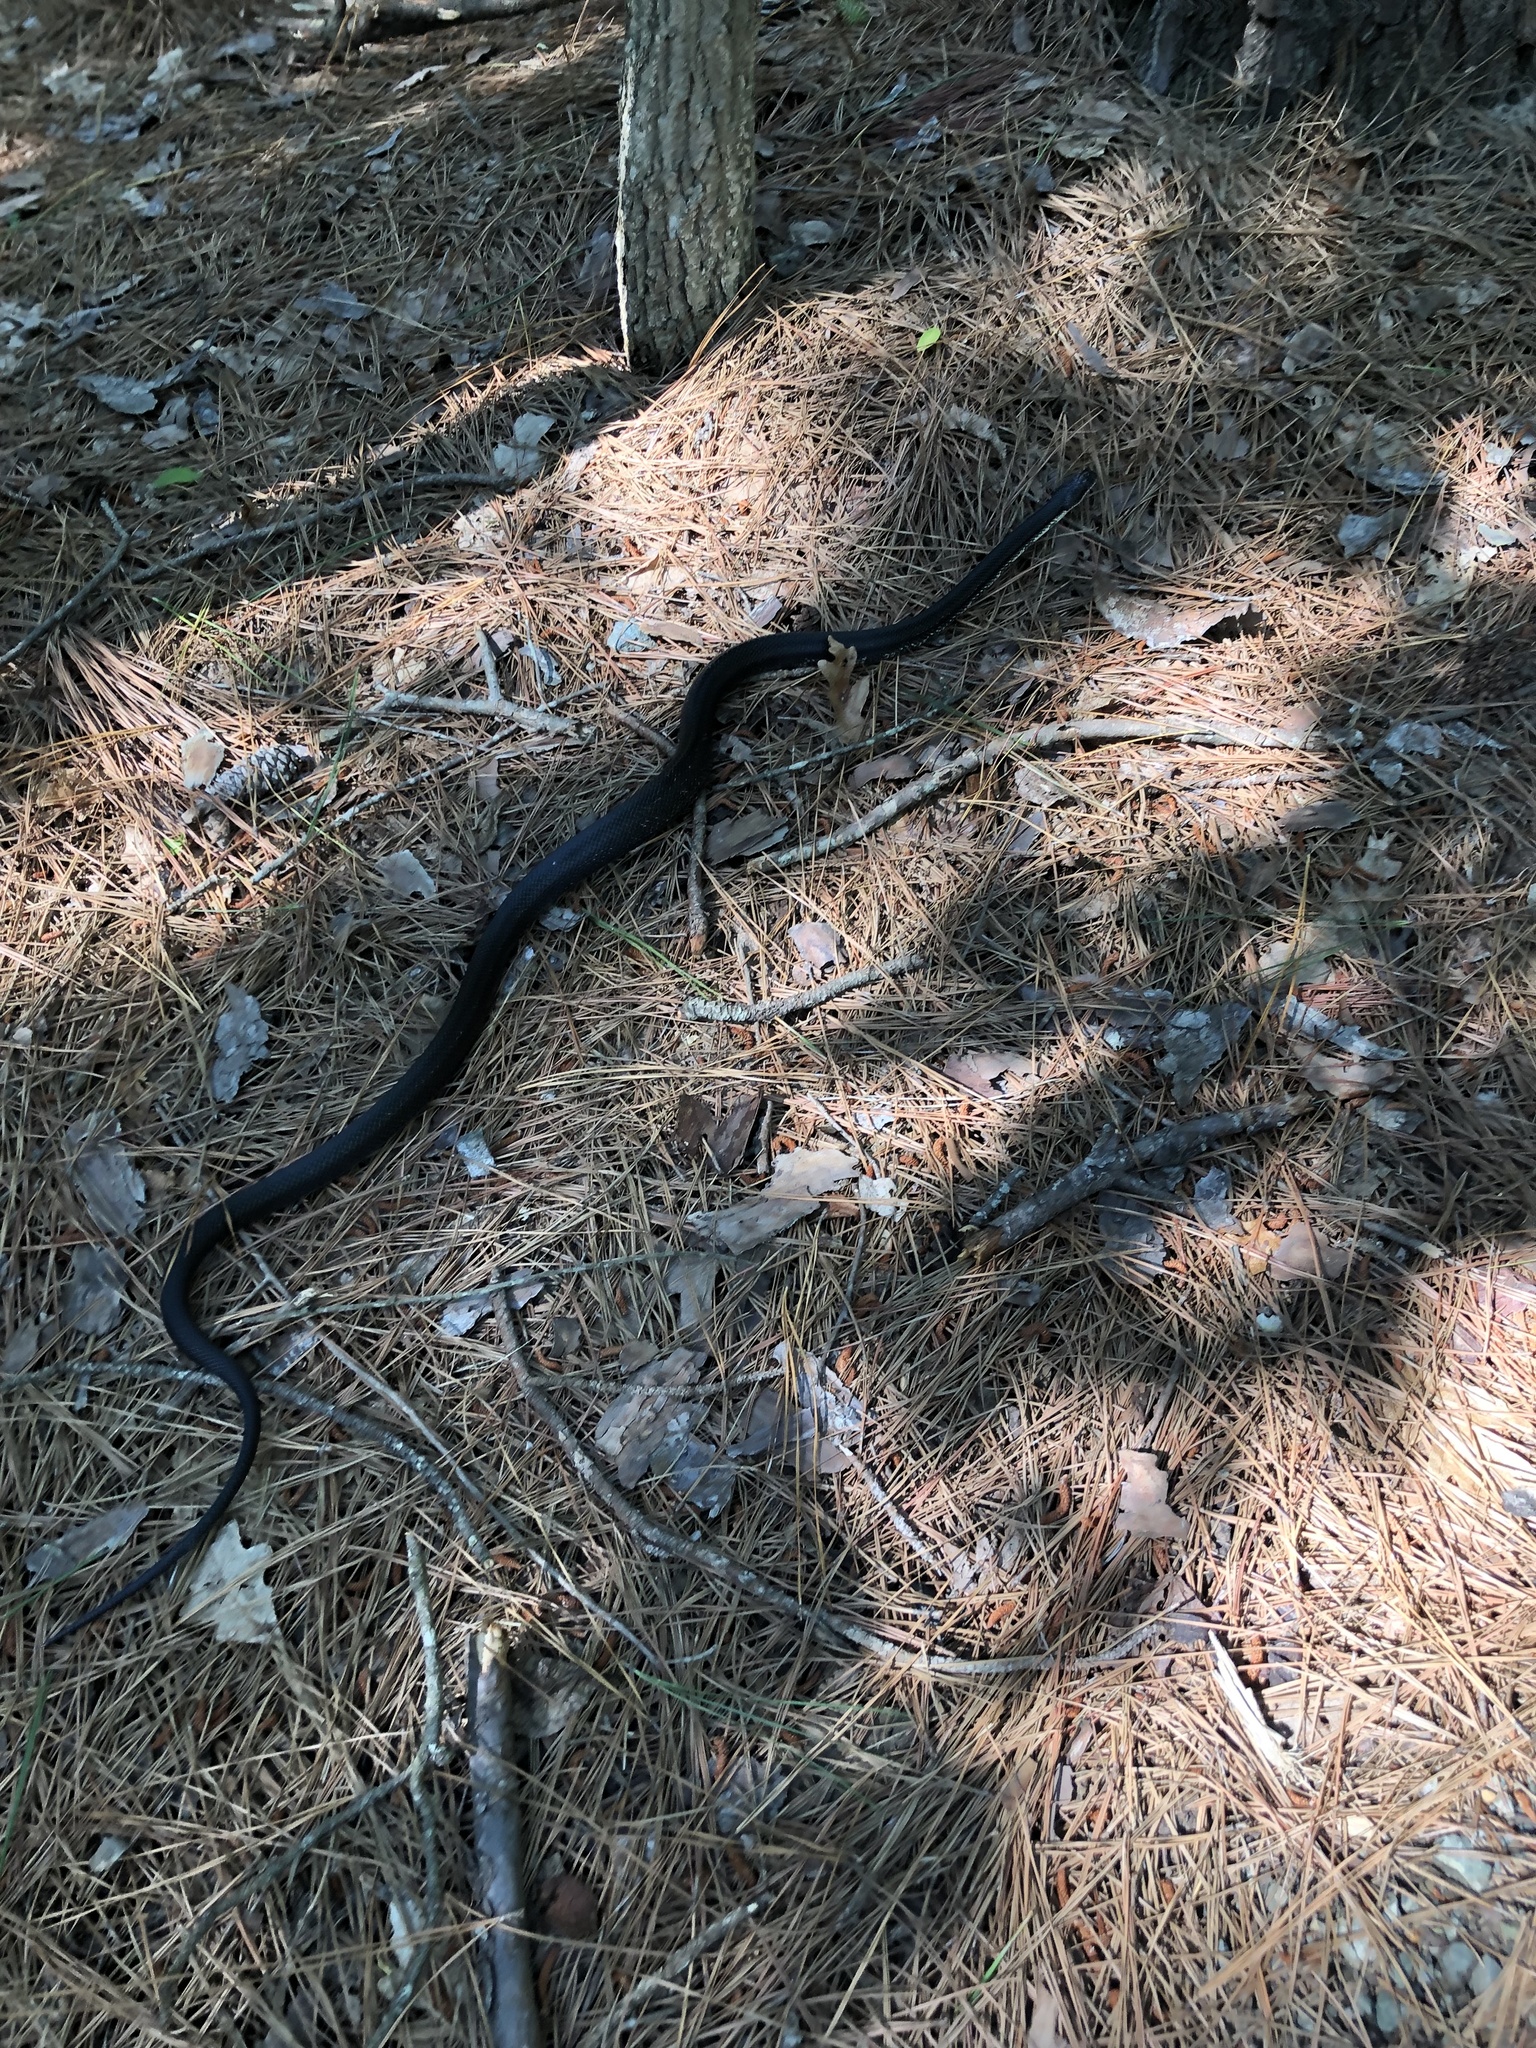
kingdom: Animalia
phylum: Chordata
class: Squamata
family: Colubridae
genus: Pantherophis
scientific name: Pantherophis alleghaniensis
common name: Eastern rat snake
